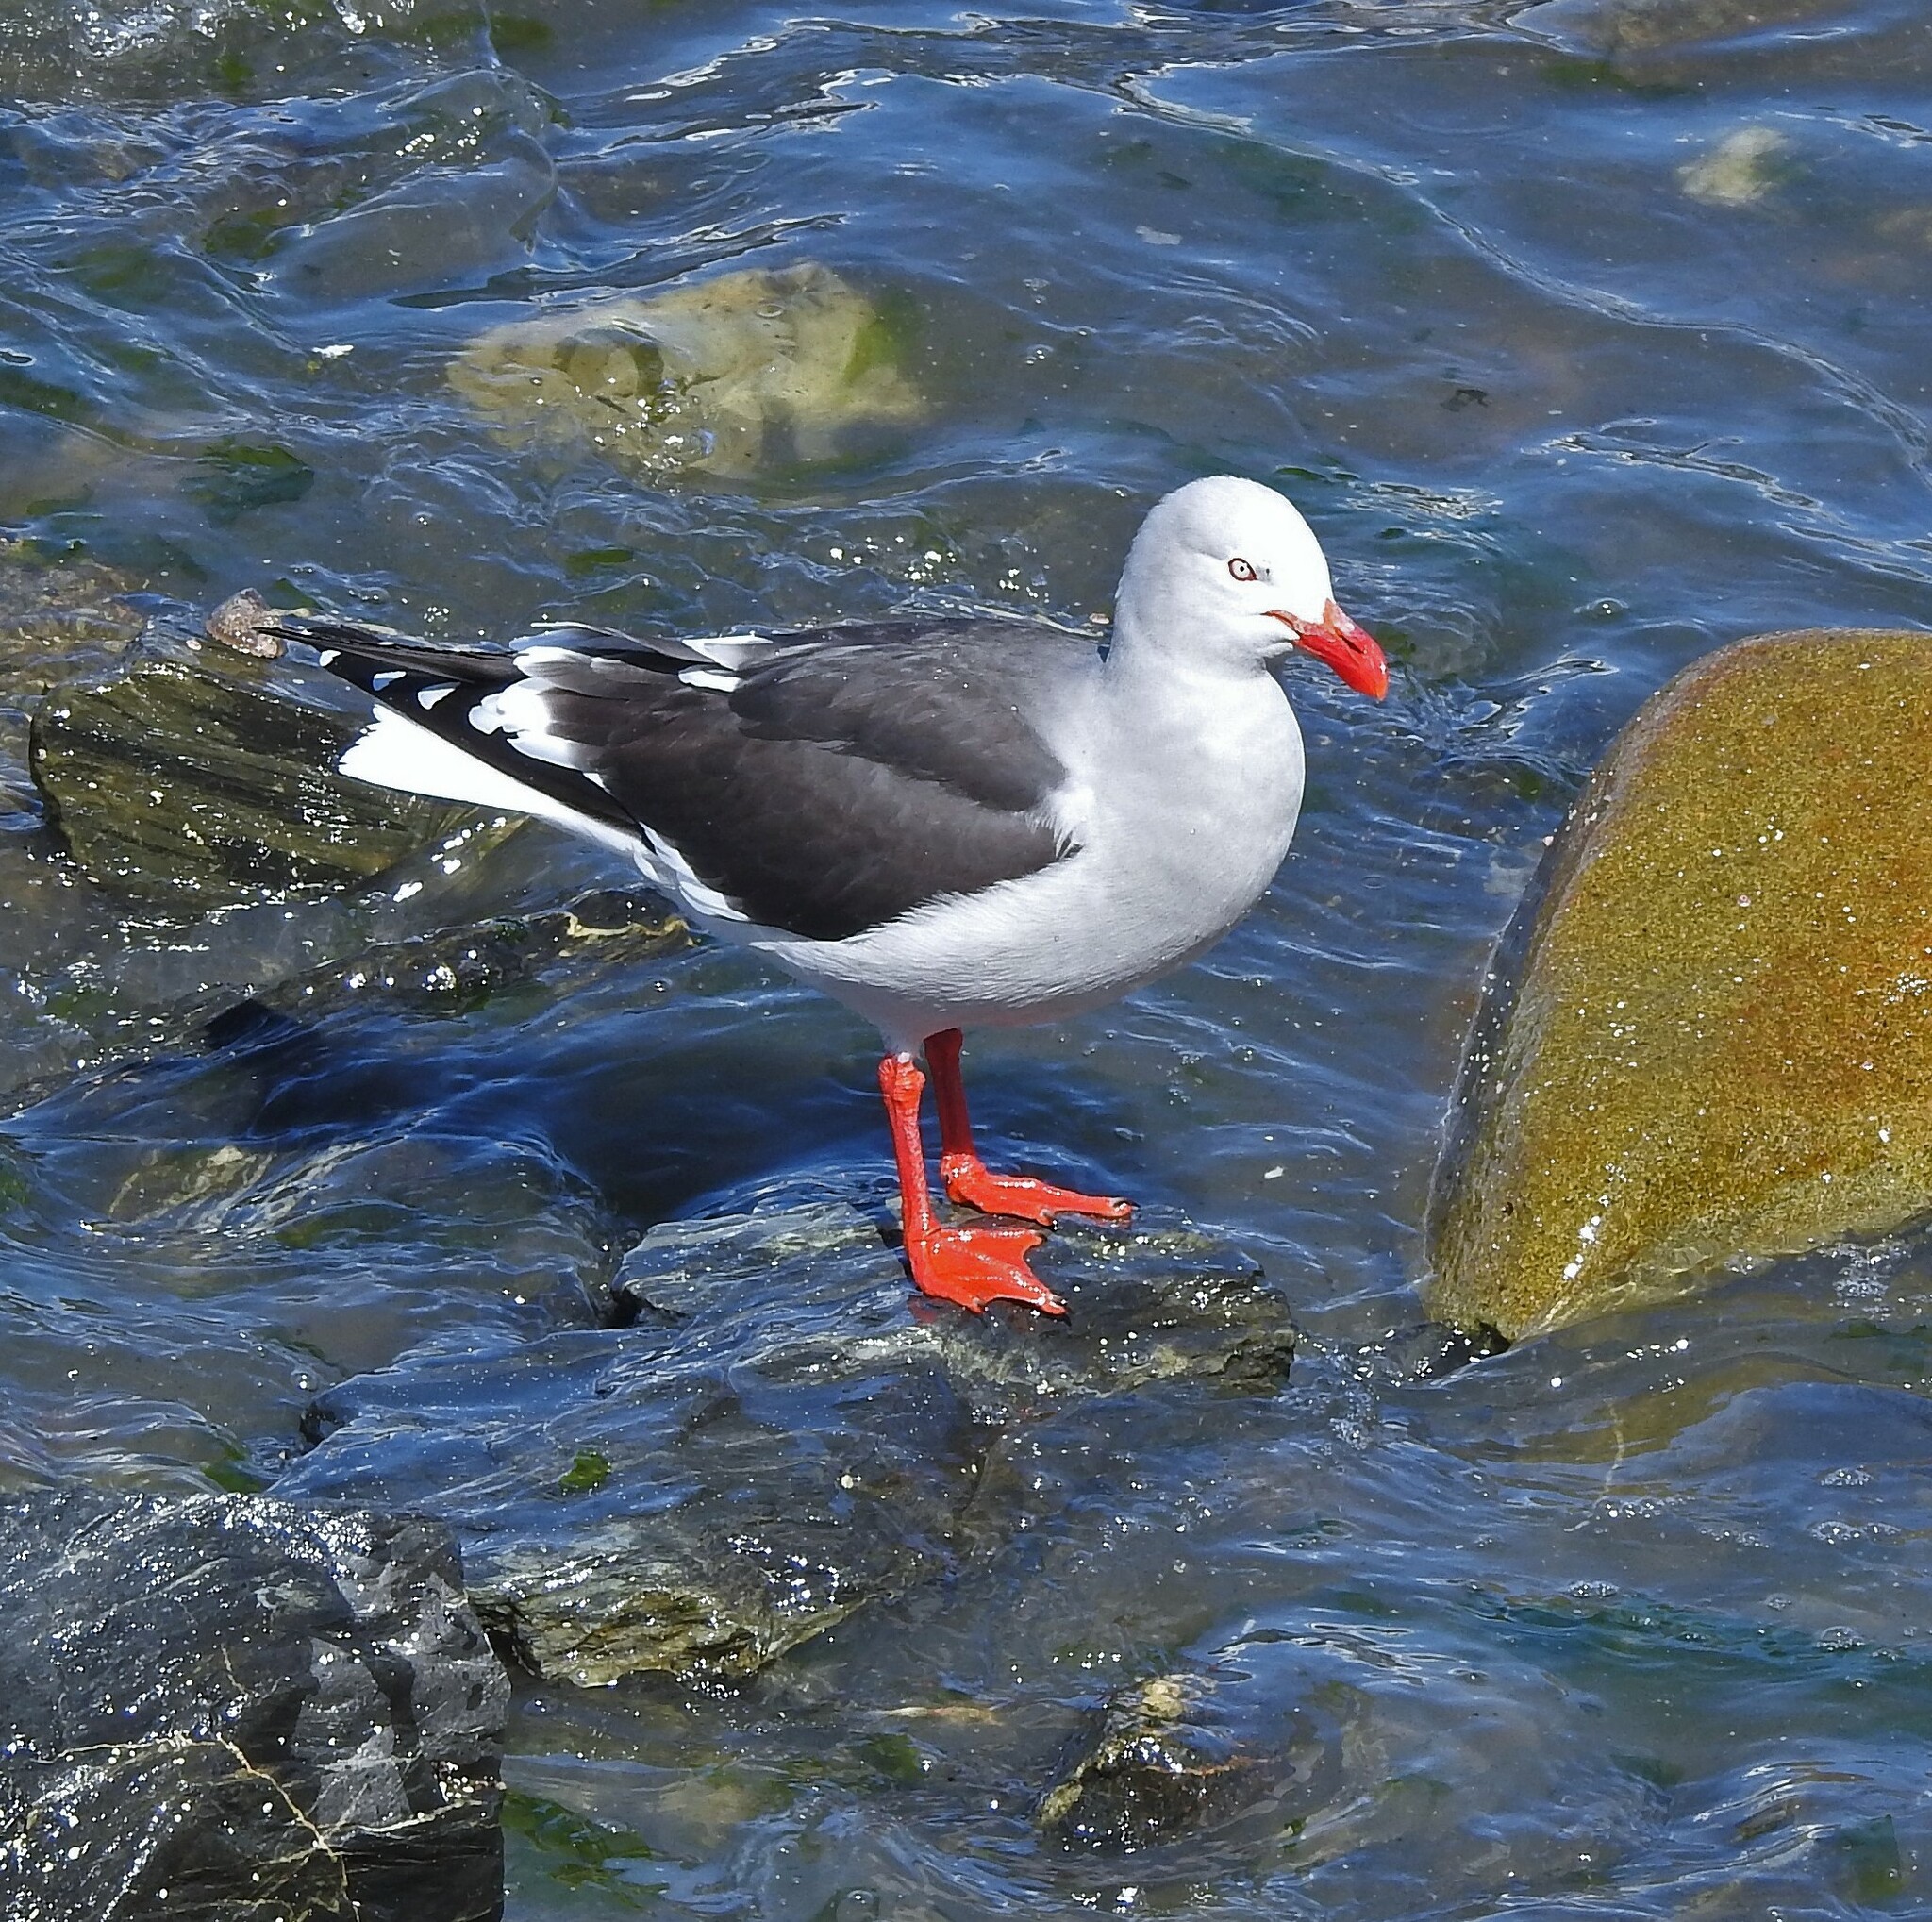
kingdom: Animalia
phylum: Chordata
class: Aves
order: Charadriiformes
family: Laridae
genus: Leucophaeus
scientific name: Leucophaeus scoresbii
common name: Dolphin gull
